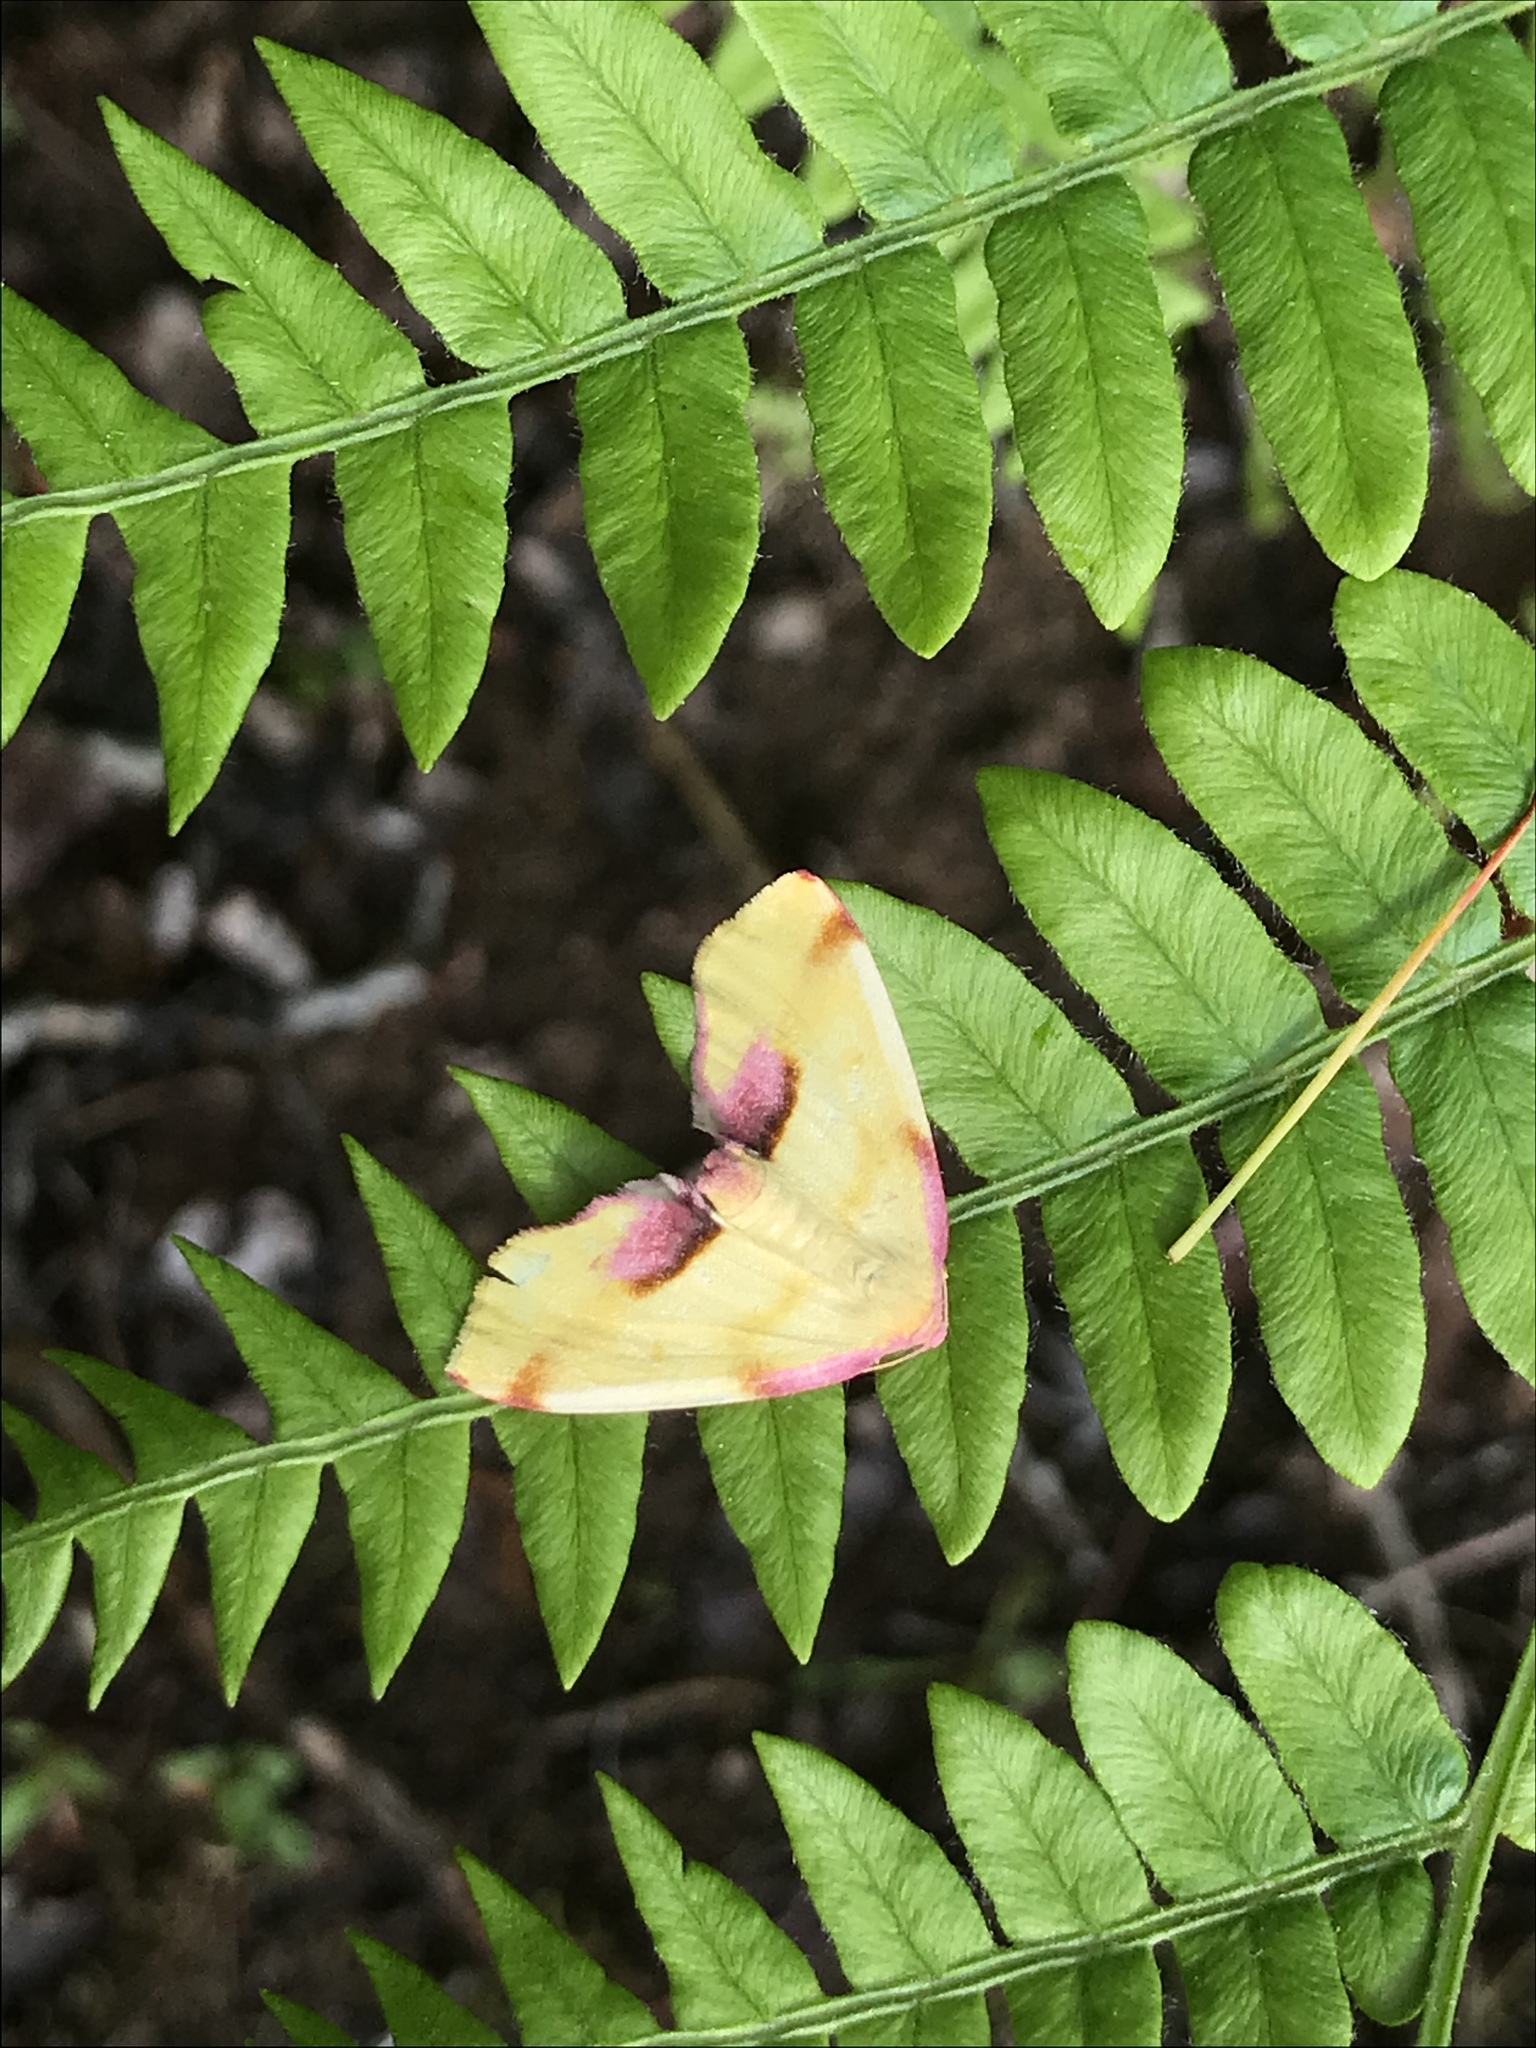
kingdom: Animalia
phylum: Arthropoda
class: Insecta
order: Lepidoptera
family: Geometridae
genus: Plagodis
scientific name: Plagodis serinaria
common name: Lemon plagodis
